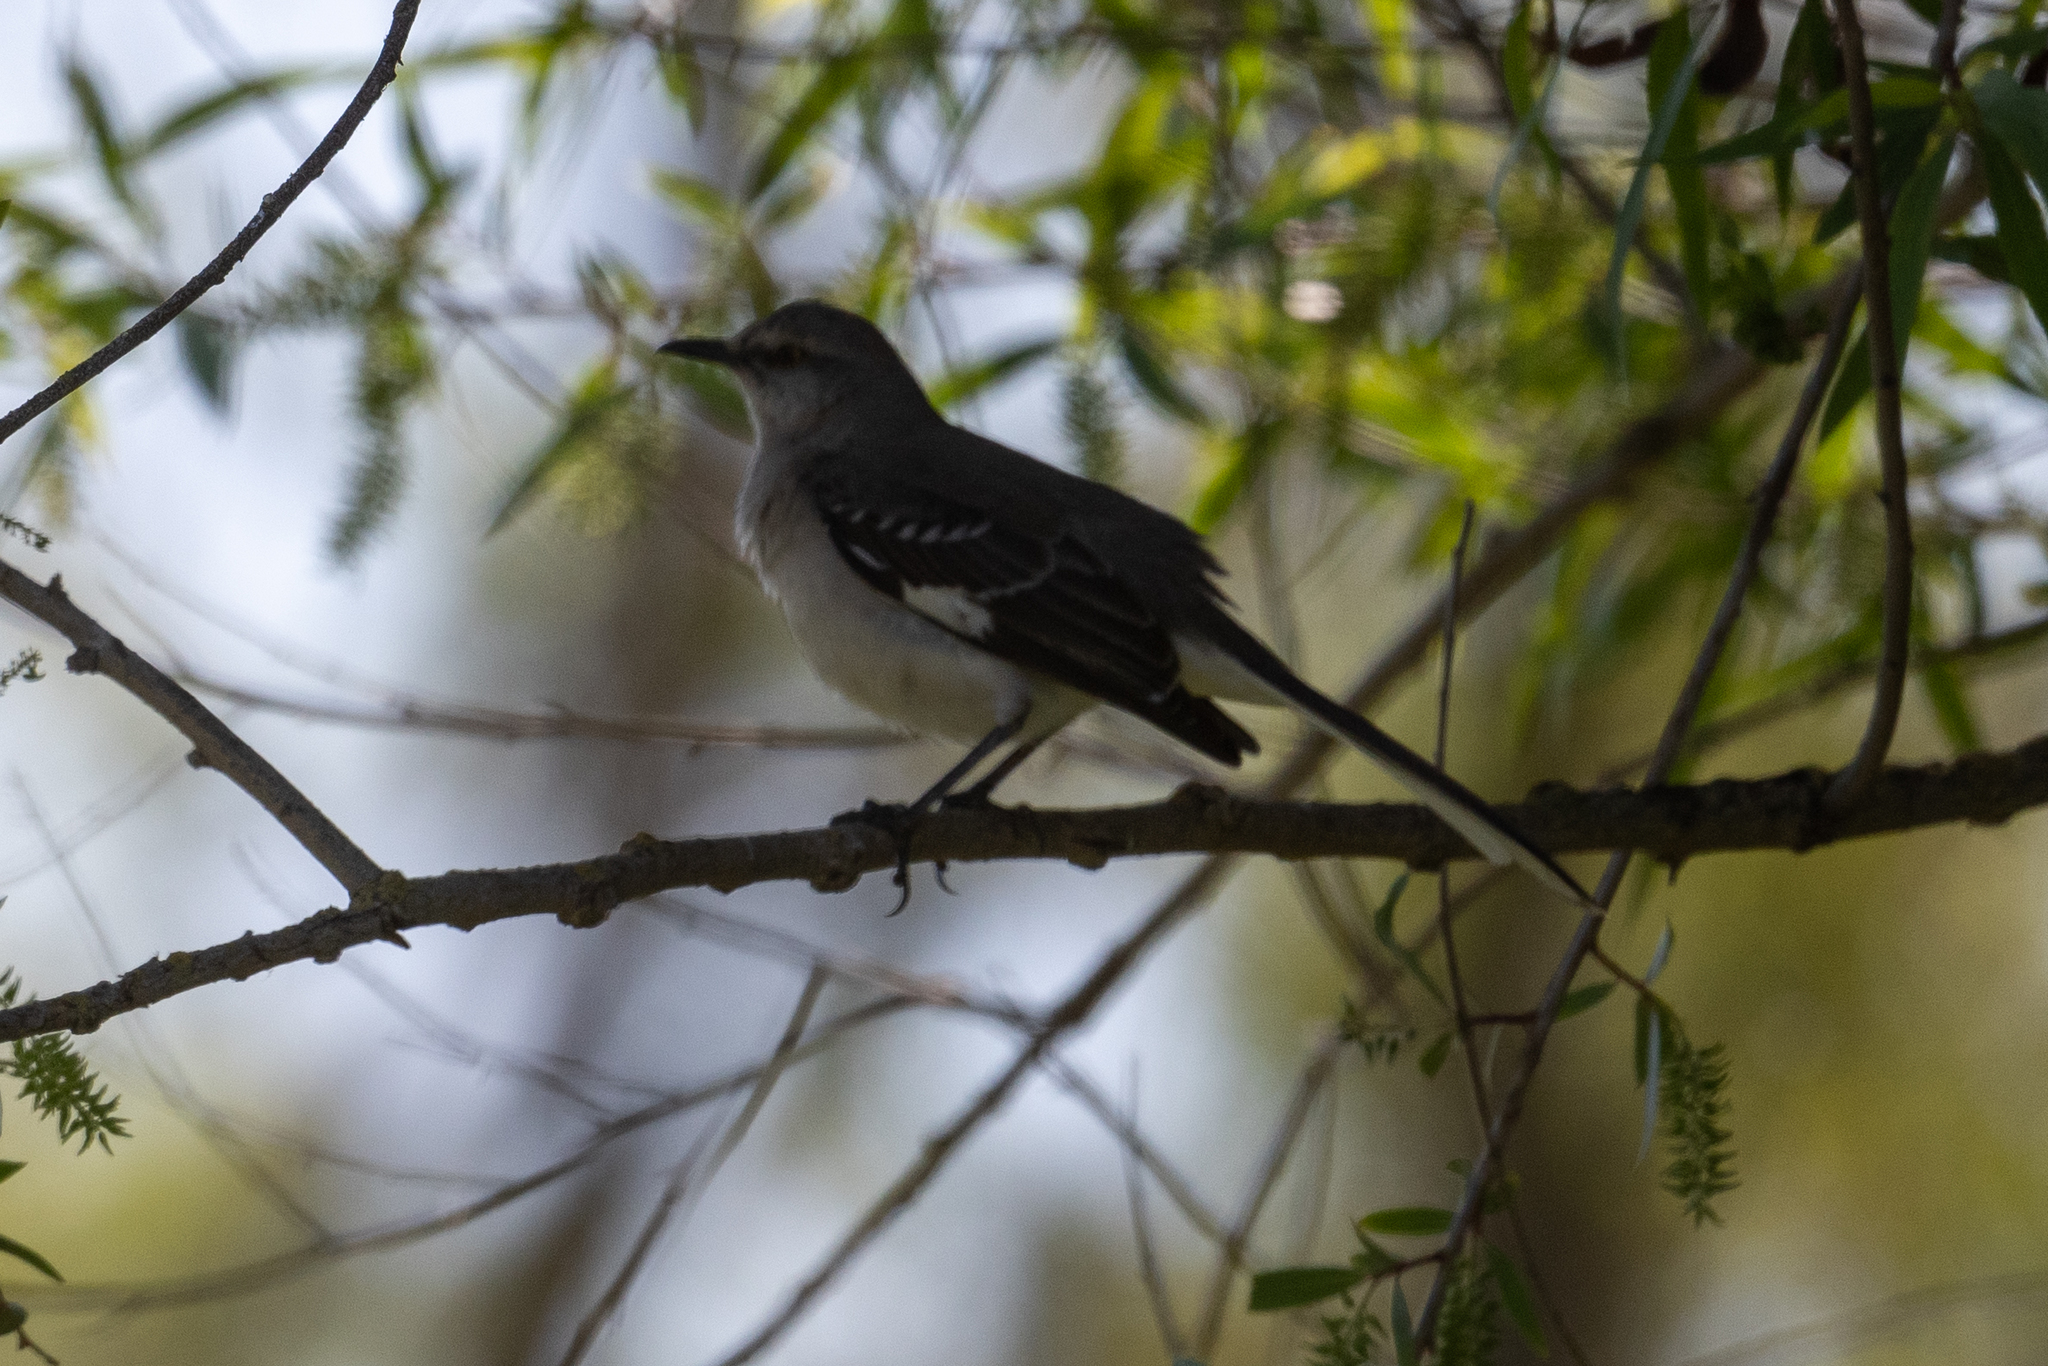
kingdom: Animalia
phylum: Chordata
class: Aves
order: Passeriformes
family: Mimidae
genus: Mimus
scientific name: Mimus polyglottos
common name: Northern mockingbird
